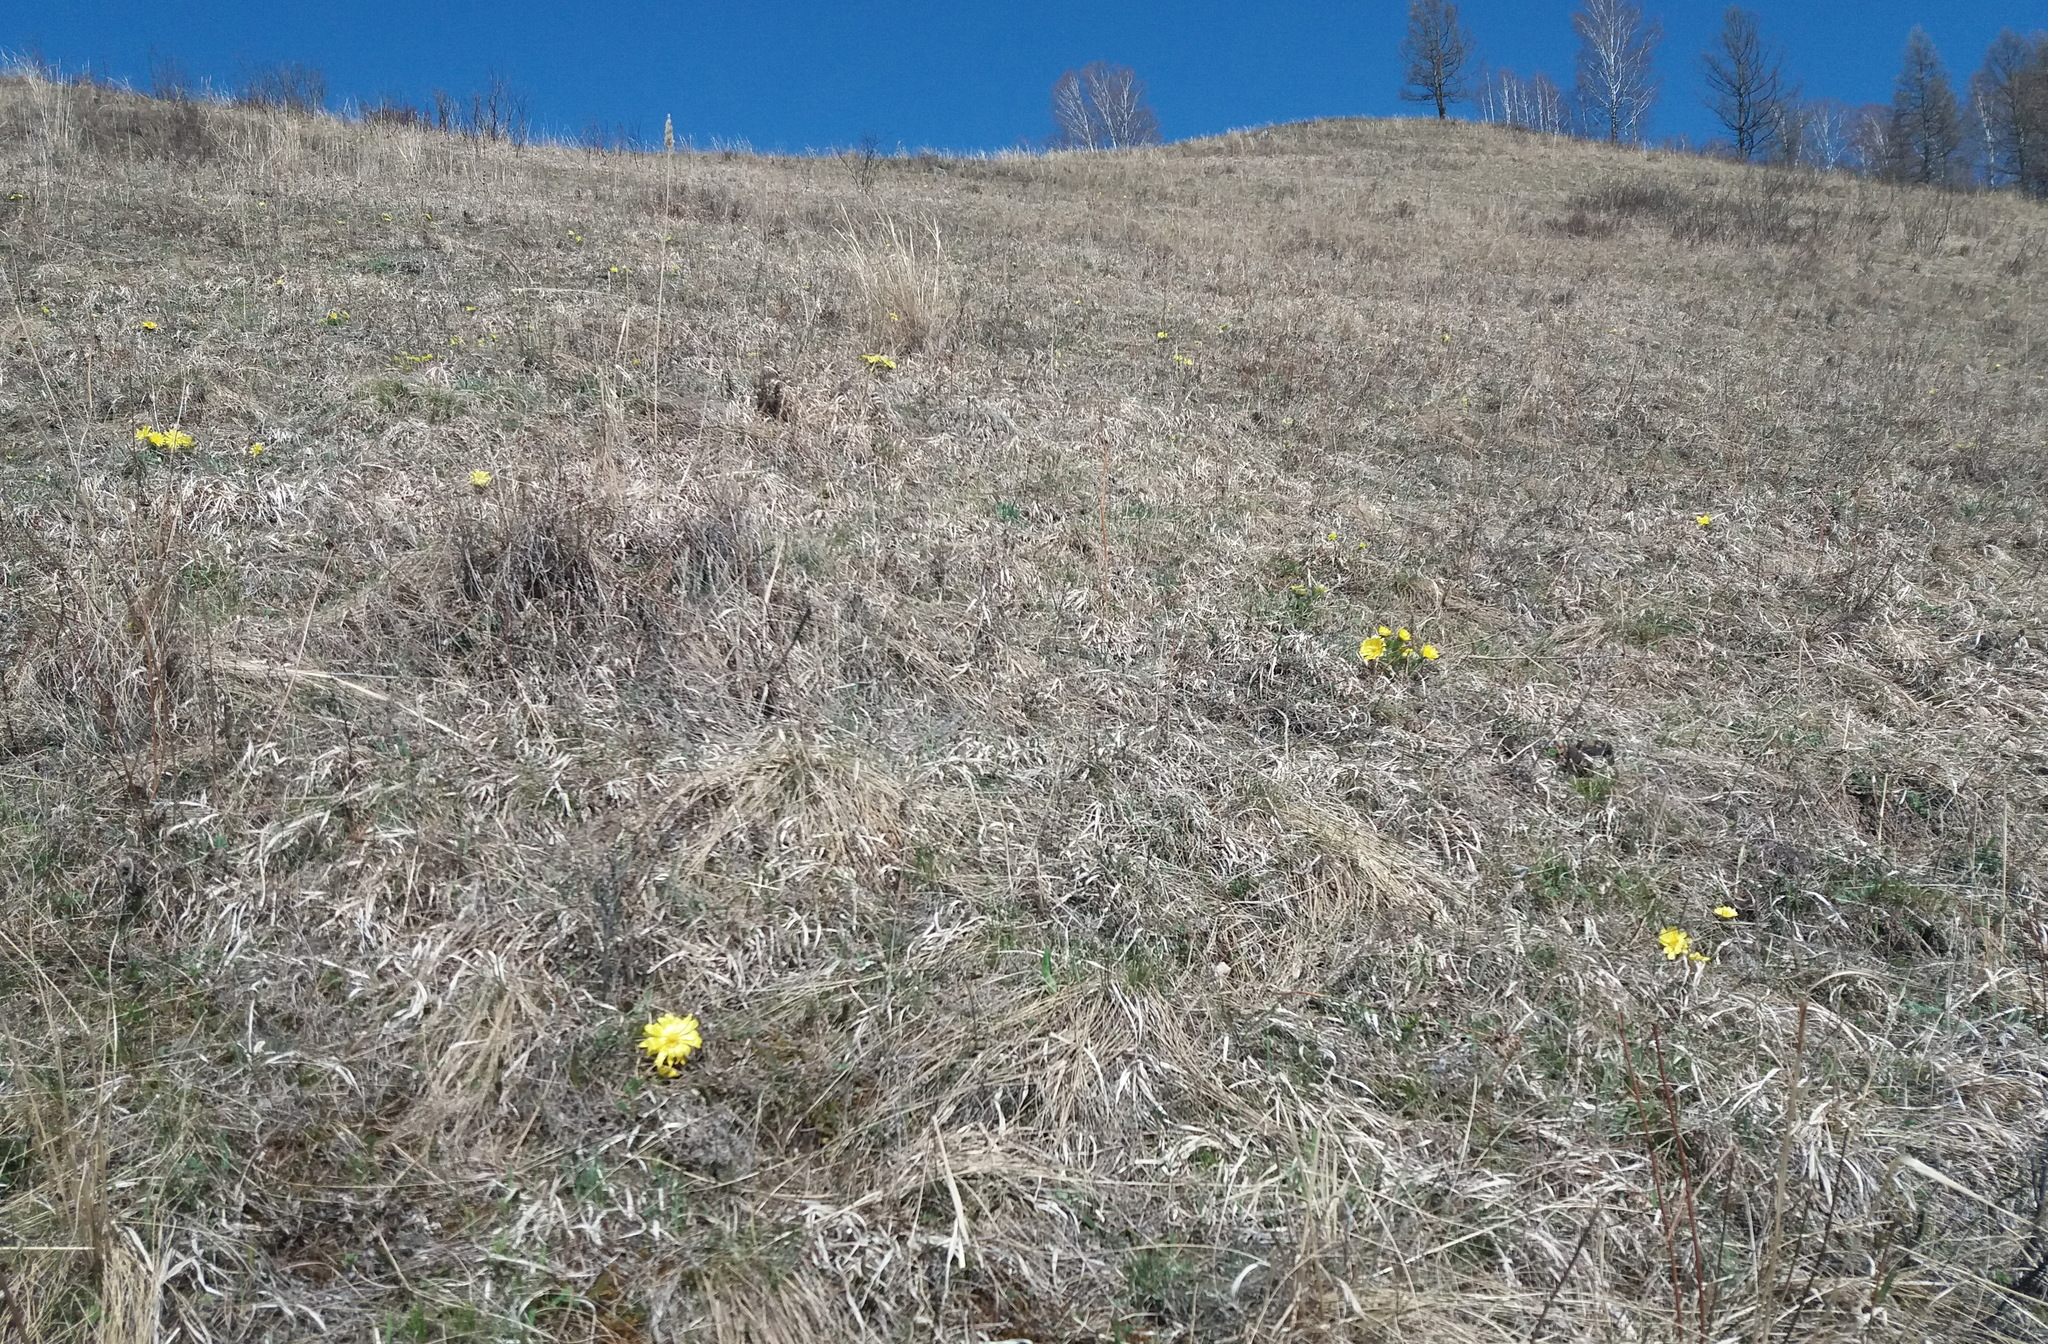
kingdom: Plantae
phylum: Tracheophyta
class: Magnoliopsida
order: Ranunculales
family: Ranunculaceae
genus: Adonis
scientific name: Adonis vernalis
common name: Yellow pheasants-eye
